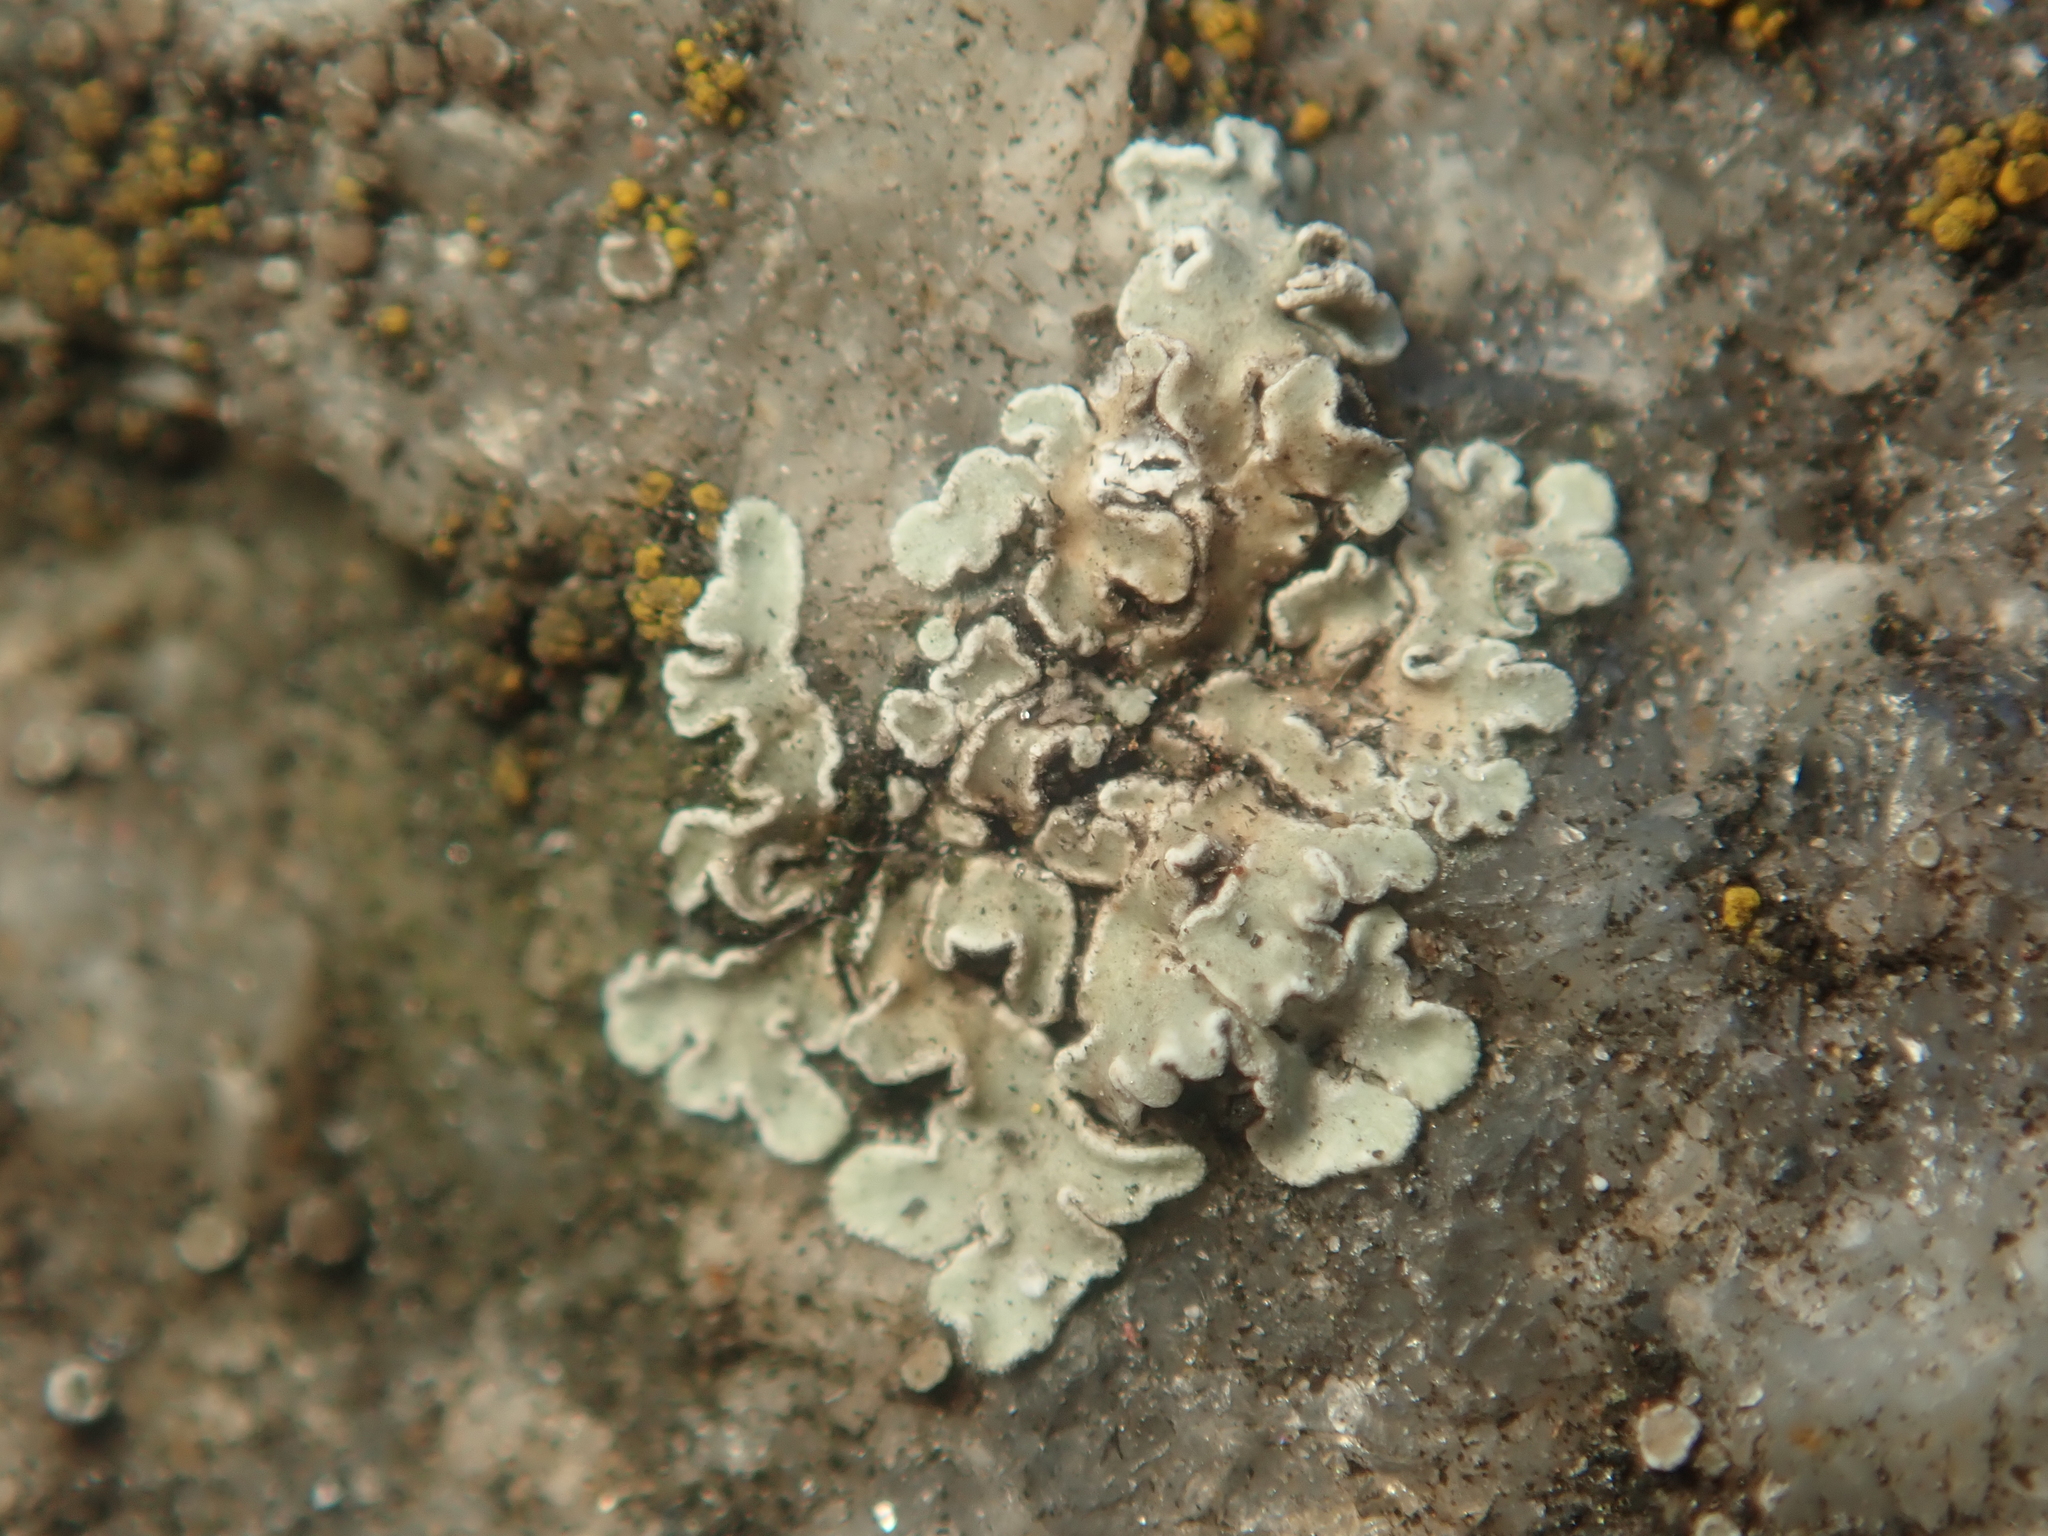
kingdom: Fungi
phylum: Ascomycota
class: Lecanoromycetes
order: Lecanorales
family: Lecanoraceae
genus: Protoparmeliopsis
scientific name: Protoparmeliopsis muralis
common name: Stonewall rim lichen
